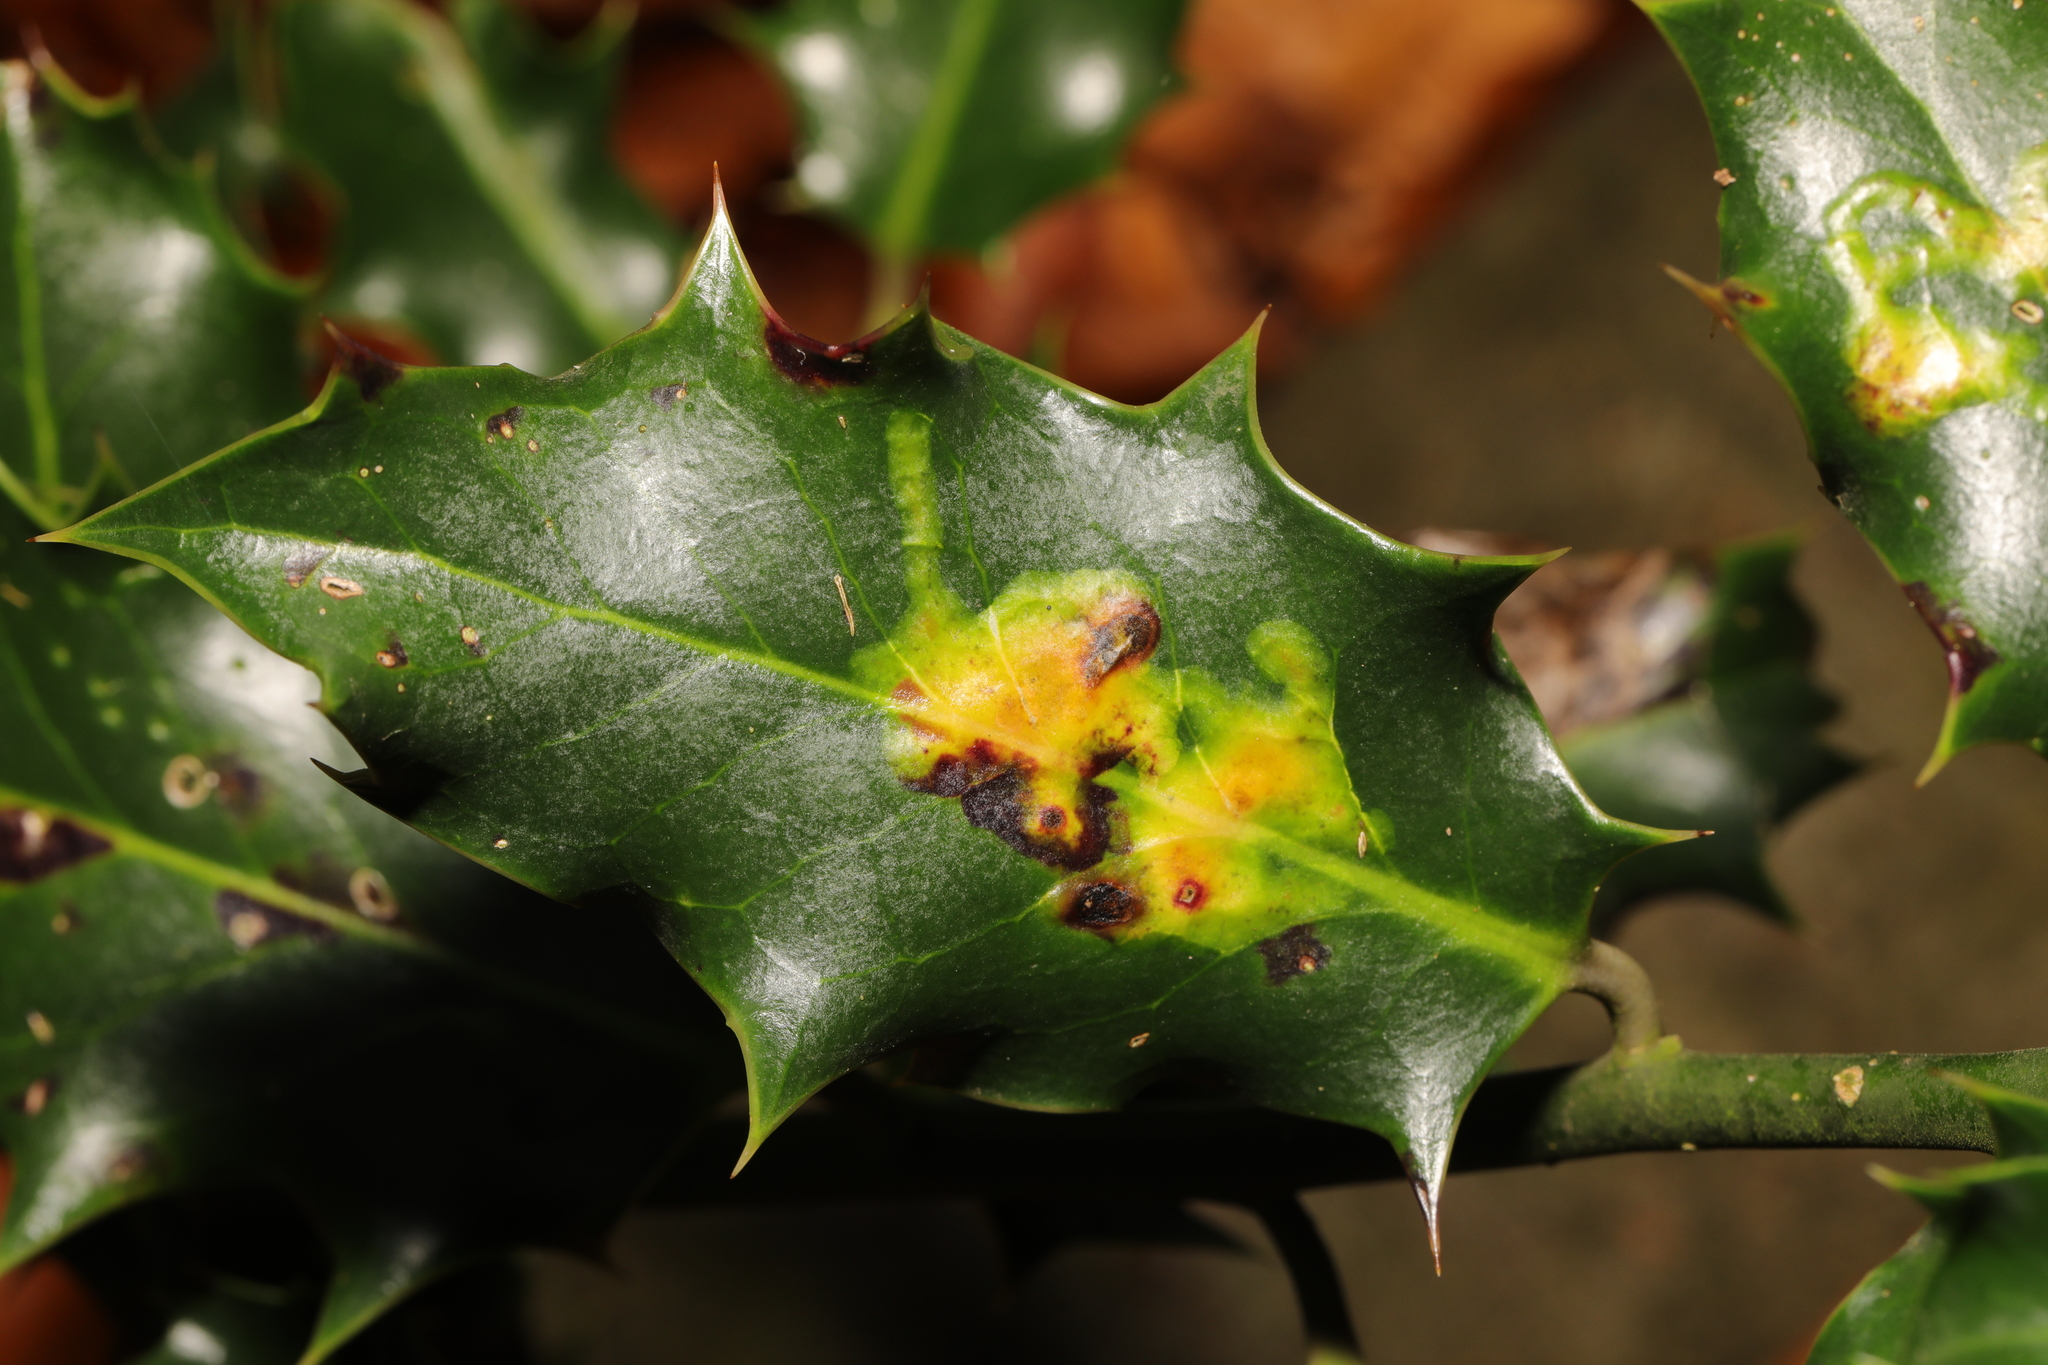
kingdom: Animalia
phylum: Arthropoda
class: Insecta
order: Diptera
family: Agromyzidae
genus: Phytomyza
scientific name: Phytomyza ilicis
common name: Holly leafminer
